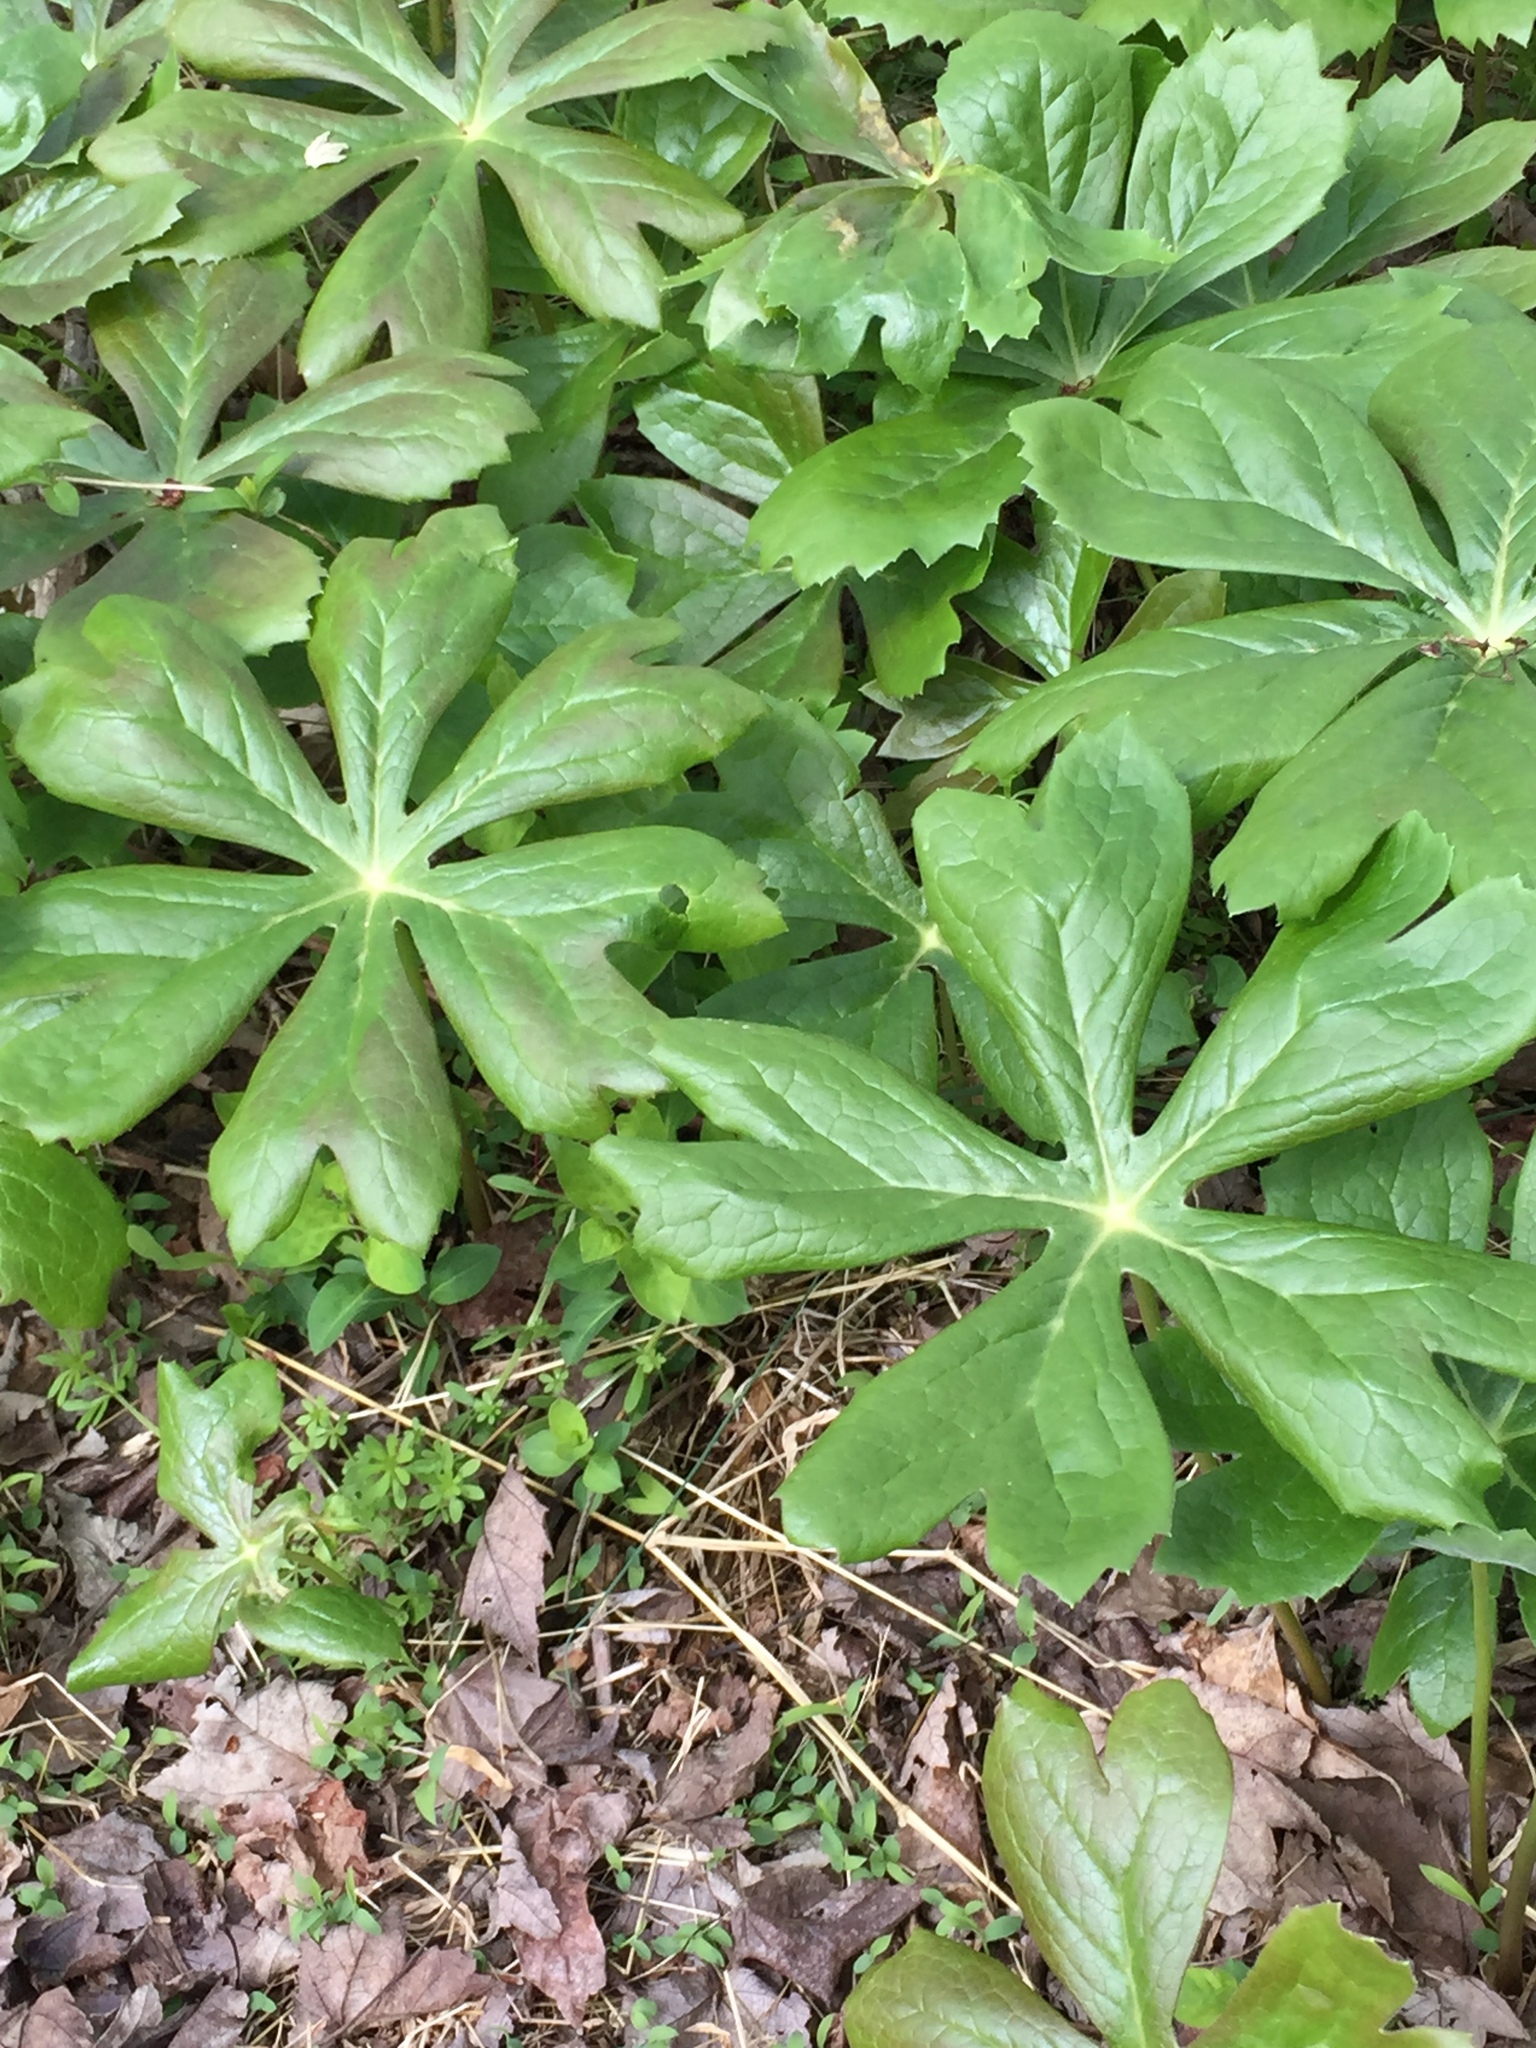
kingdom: Plantae
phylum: Tracheophyta
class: Magnoliopsida
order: Ranunculales
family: Berberidaceae
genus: Podophyllum
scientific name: Podophyllum peltatum
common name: Wild mandrake
